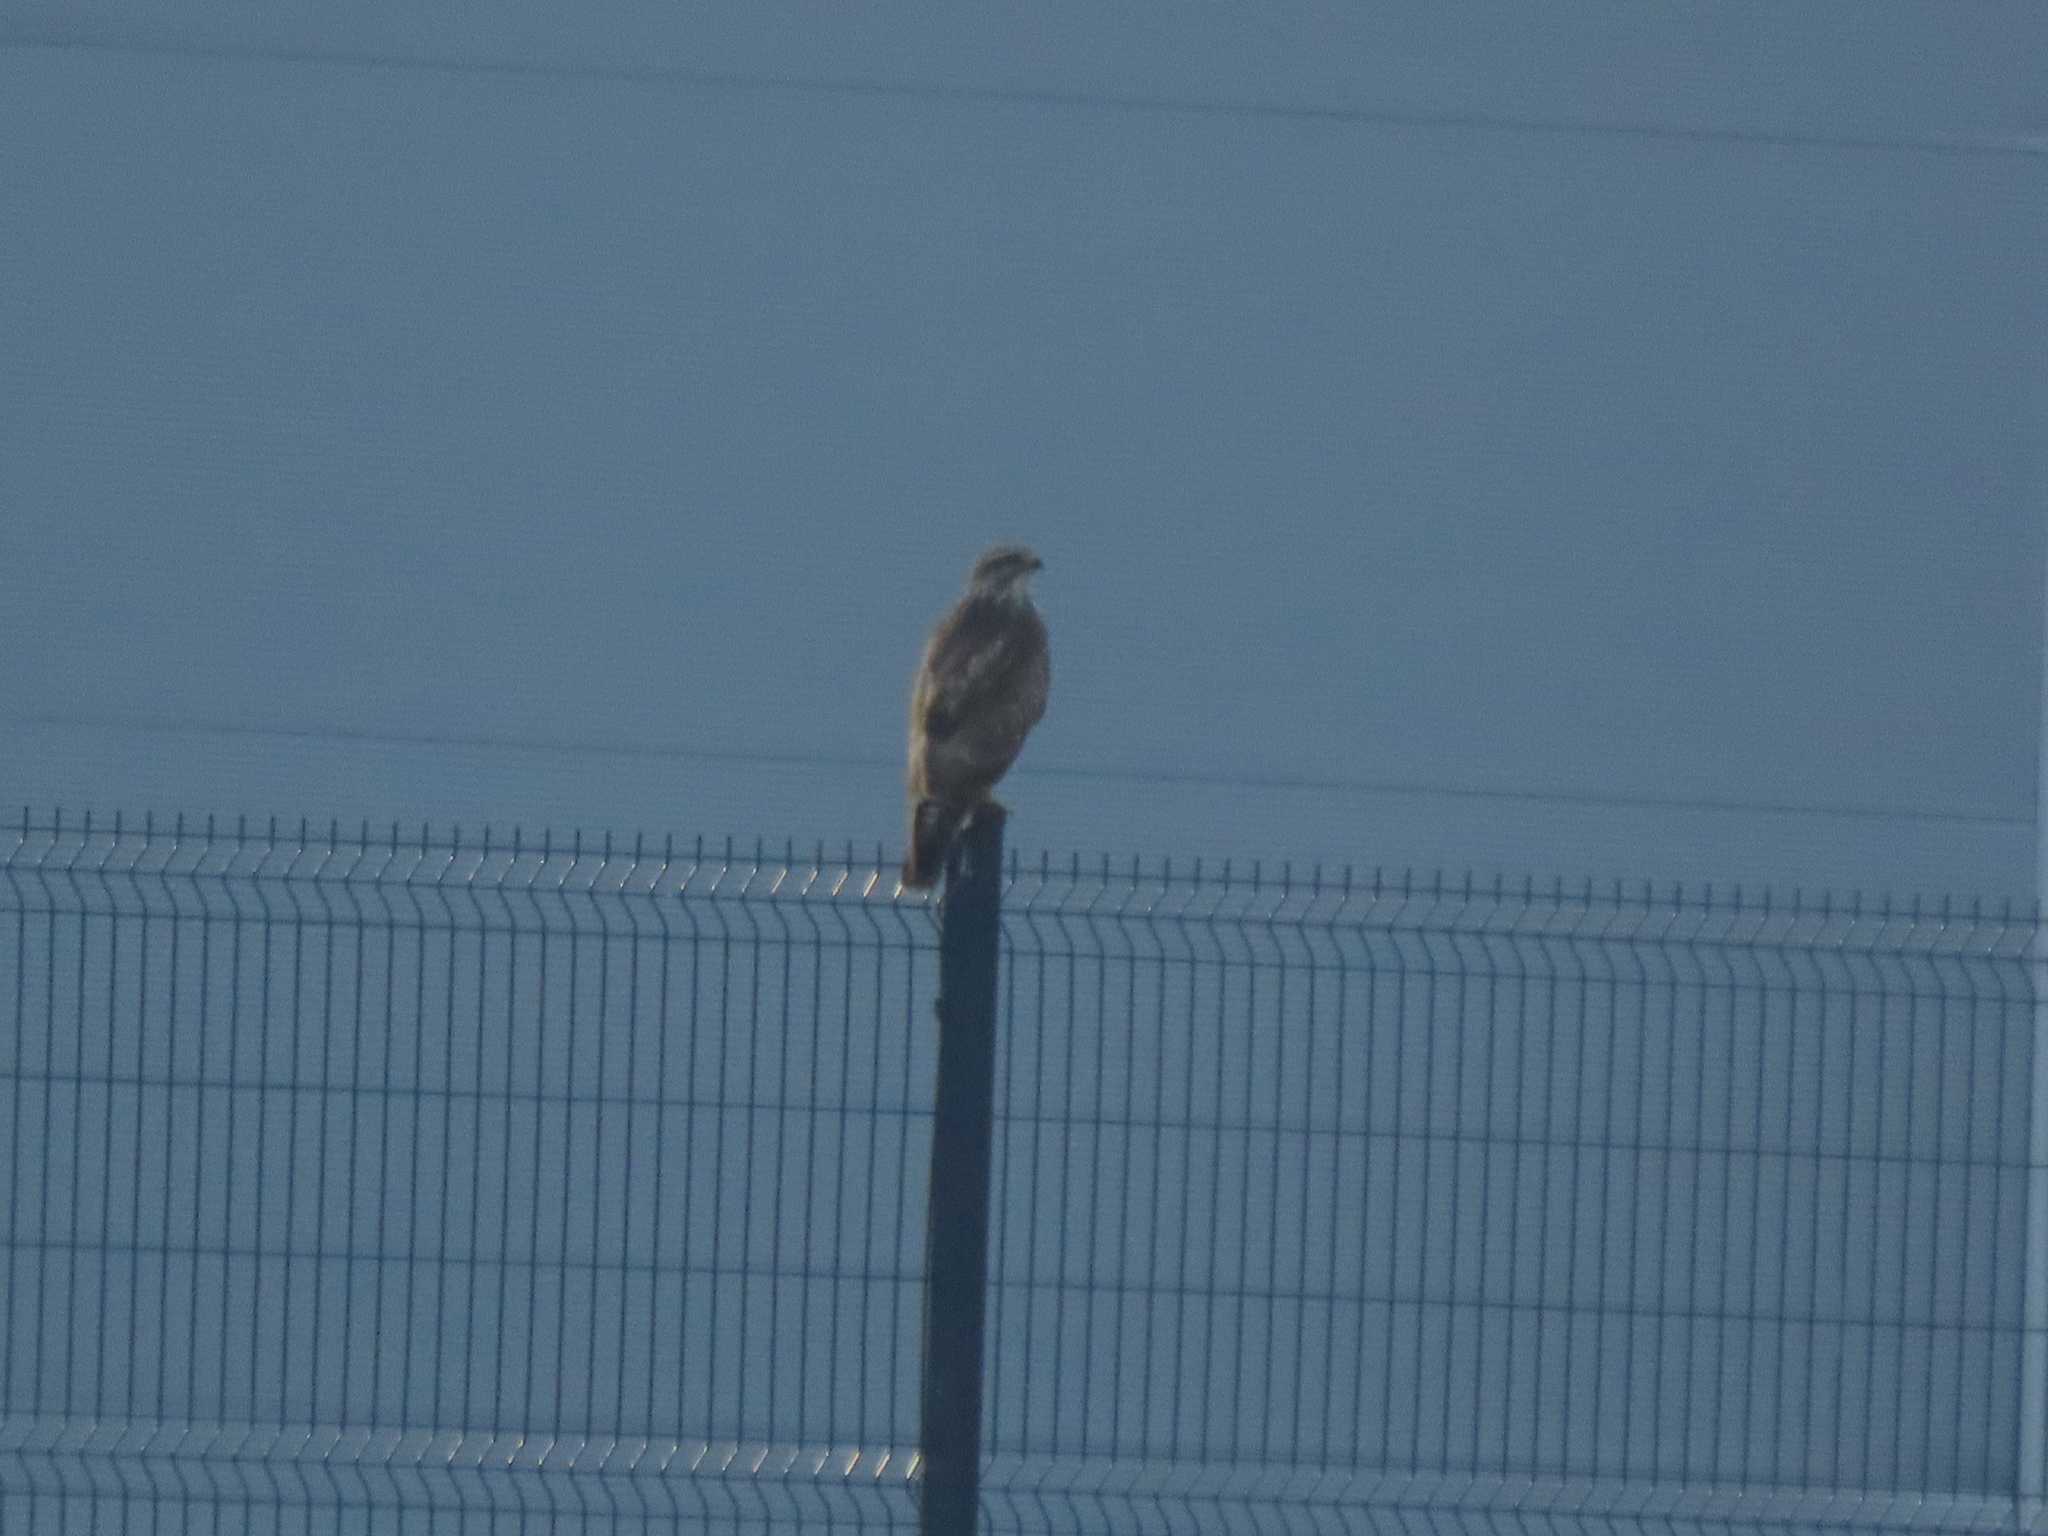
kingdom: Animalia
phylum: Chordata
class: Aves
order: Accipitriformes
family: Accipitridae
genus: Buteo
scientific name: Buteo buteo
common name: Common buzzard
